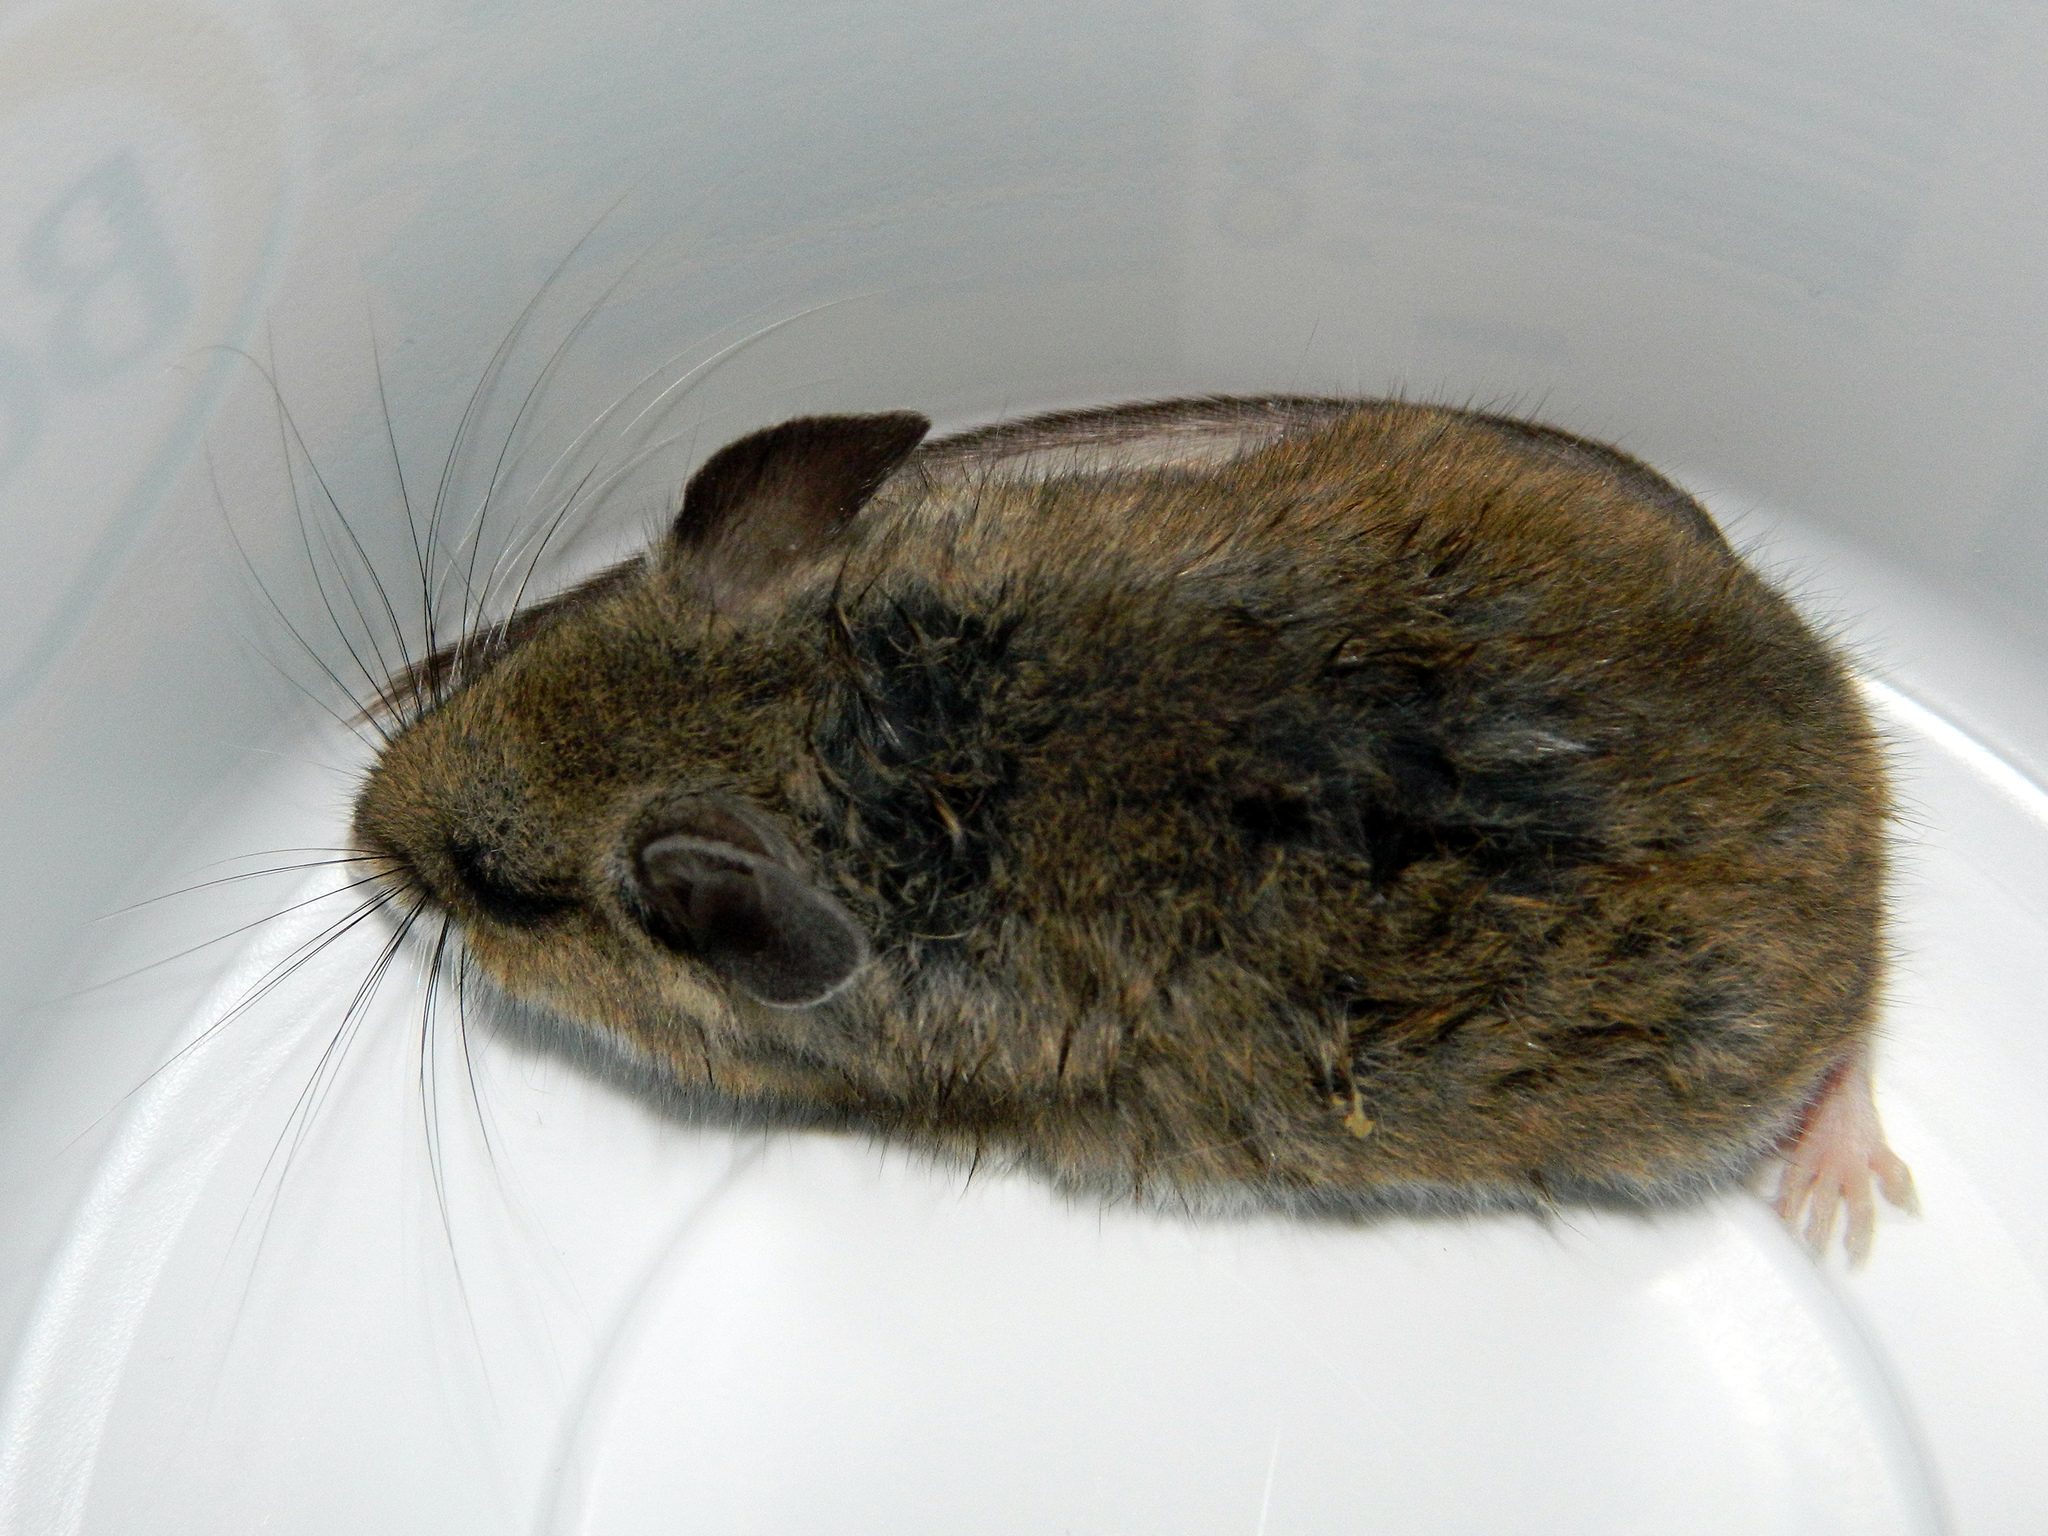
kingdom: Animalia
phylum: Chordata
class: Mammalia
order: Rodentia
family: Cricetidae
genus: Peromyscus
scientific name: Peromyscus maniculatus
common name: Deer mouse
